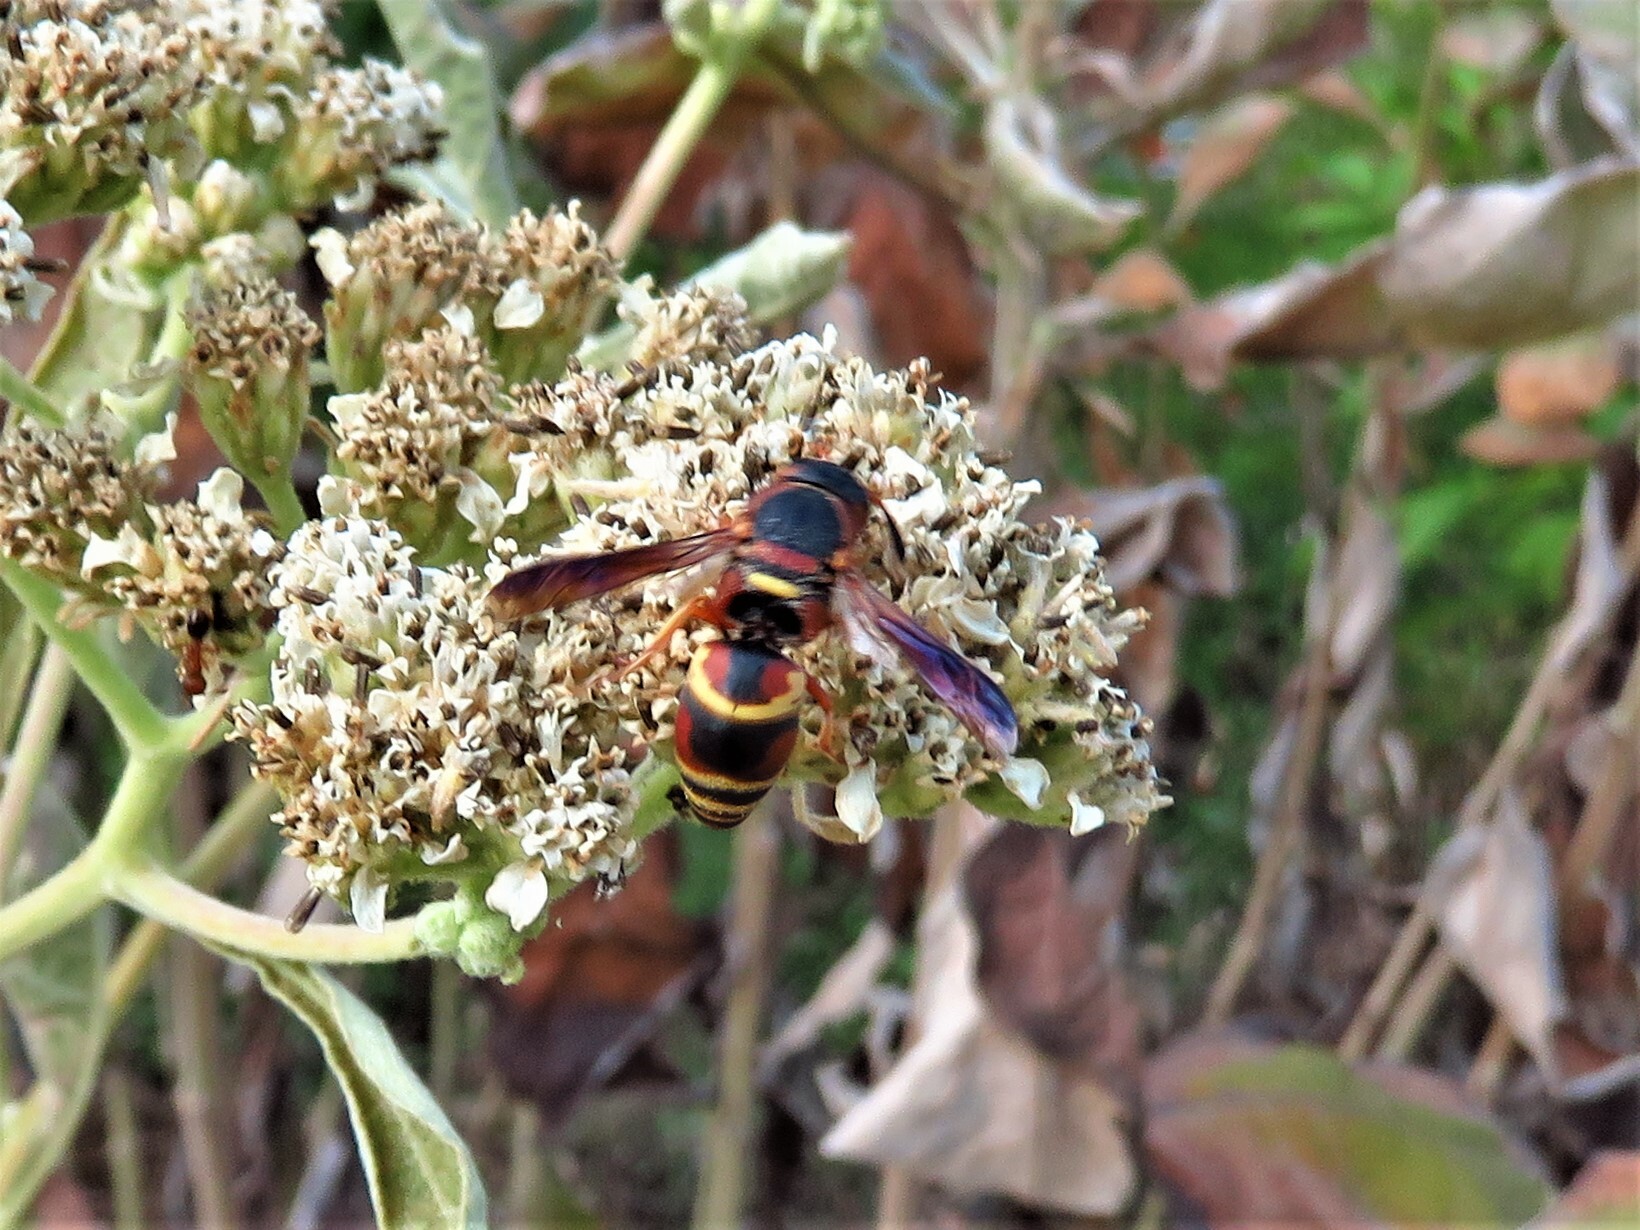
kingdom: Animalia
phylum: Arthropoda
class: Insecta
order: Hymenoptera
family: Eumenidae
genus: Euodynerus
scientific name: Euodynerus hidalgo
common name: Wasp
